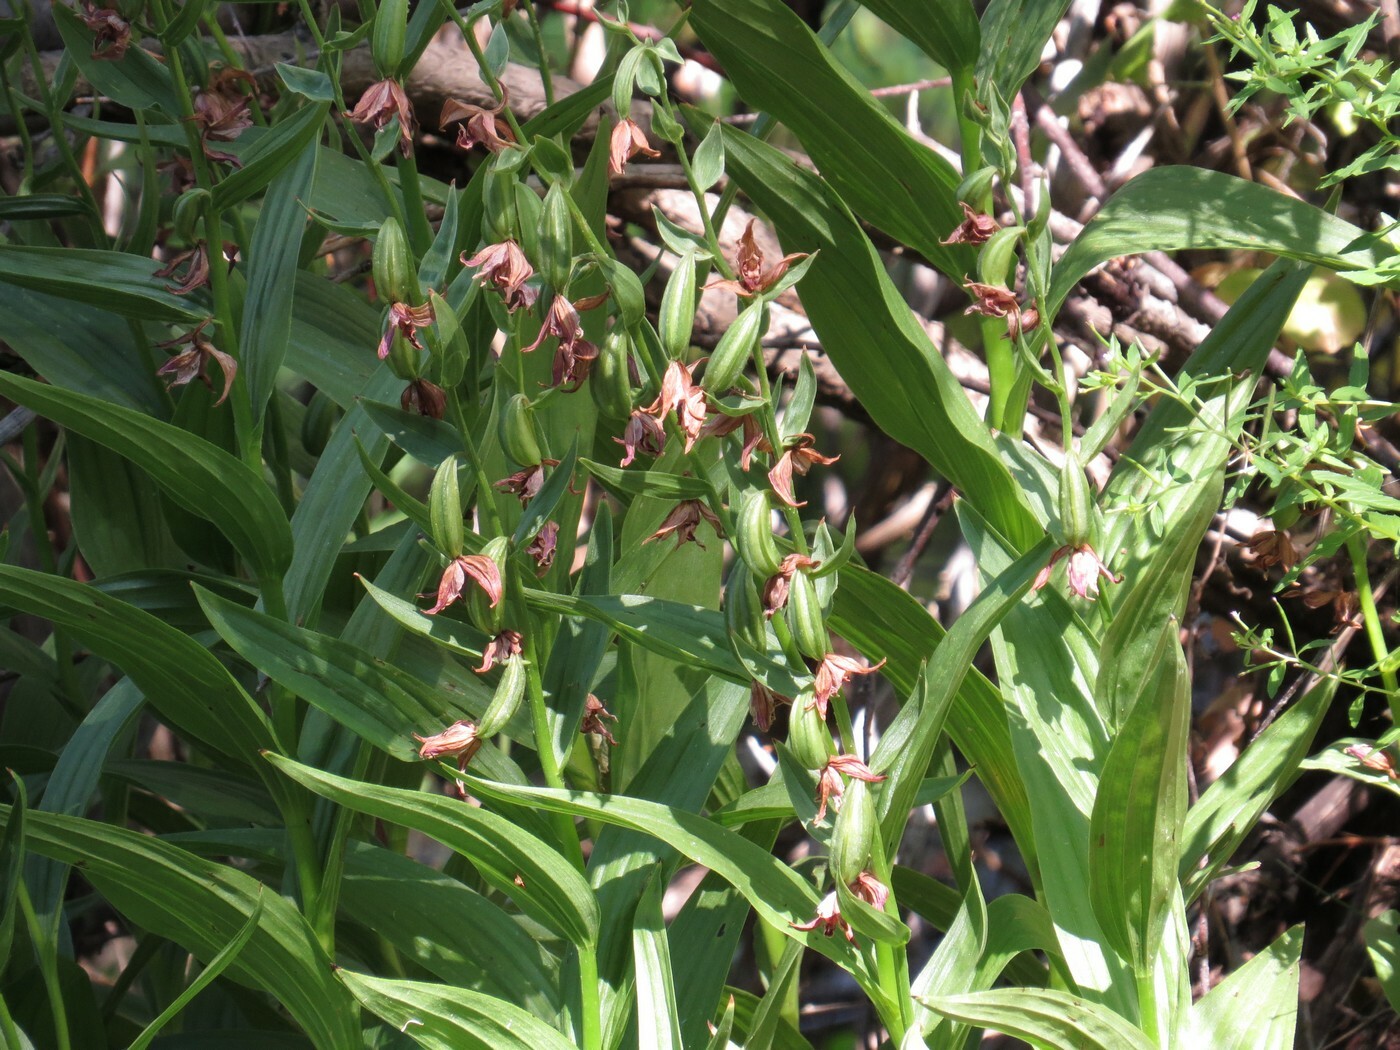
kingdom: Plantae
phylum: Tracheophyta
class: Liliopsida
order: Asparagales
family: Orchidaceae
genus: Epipactis
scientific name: Epipactis gigantea
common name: Chatterbox
